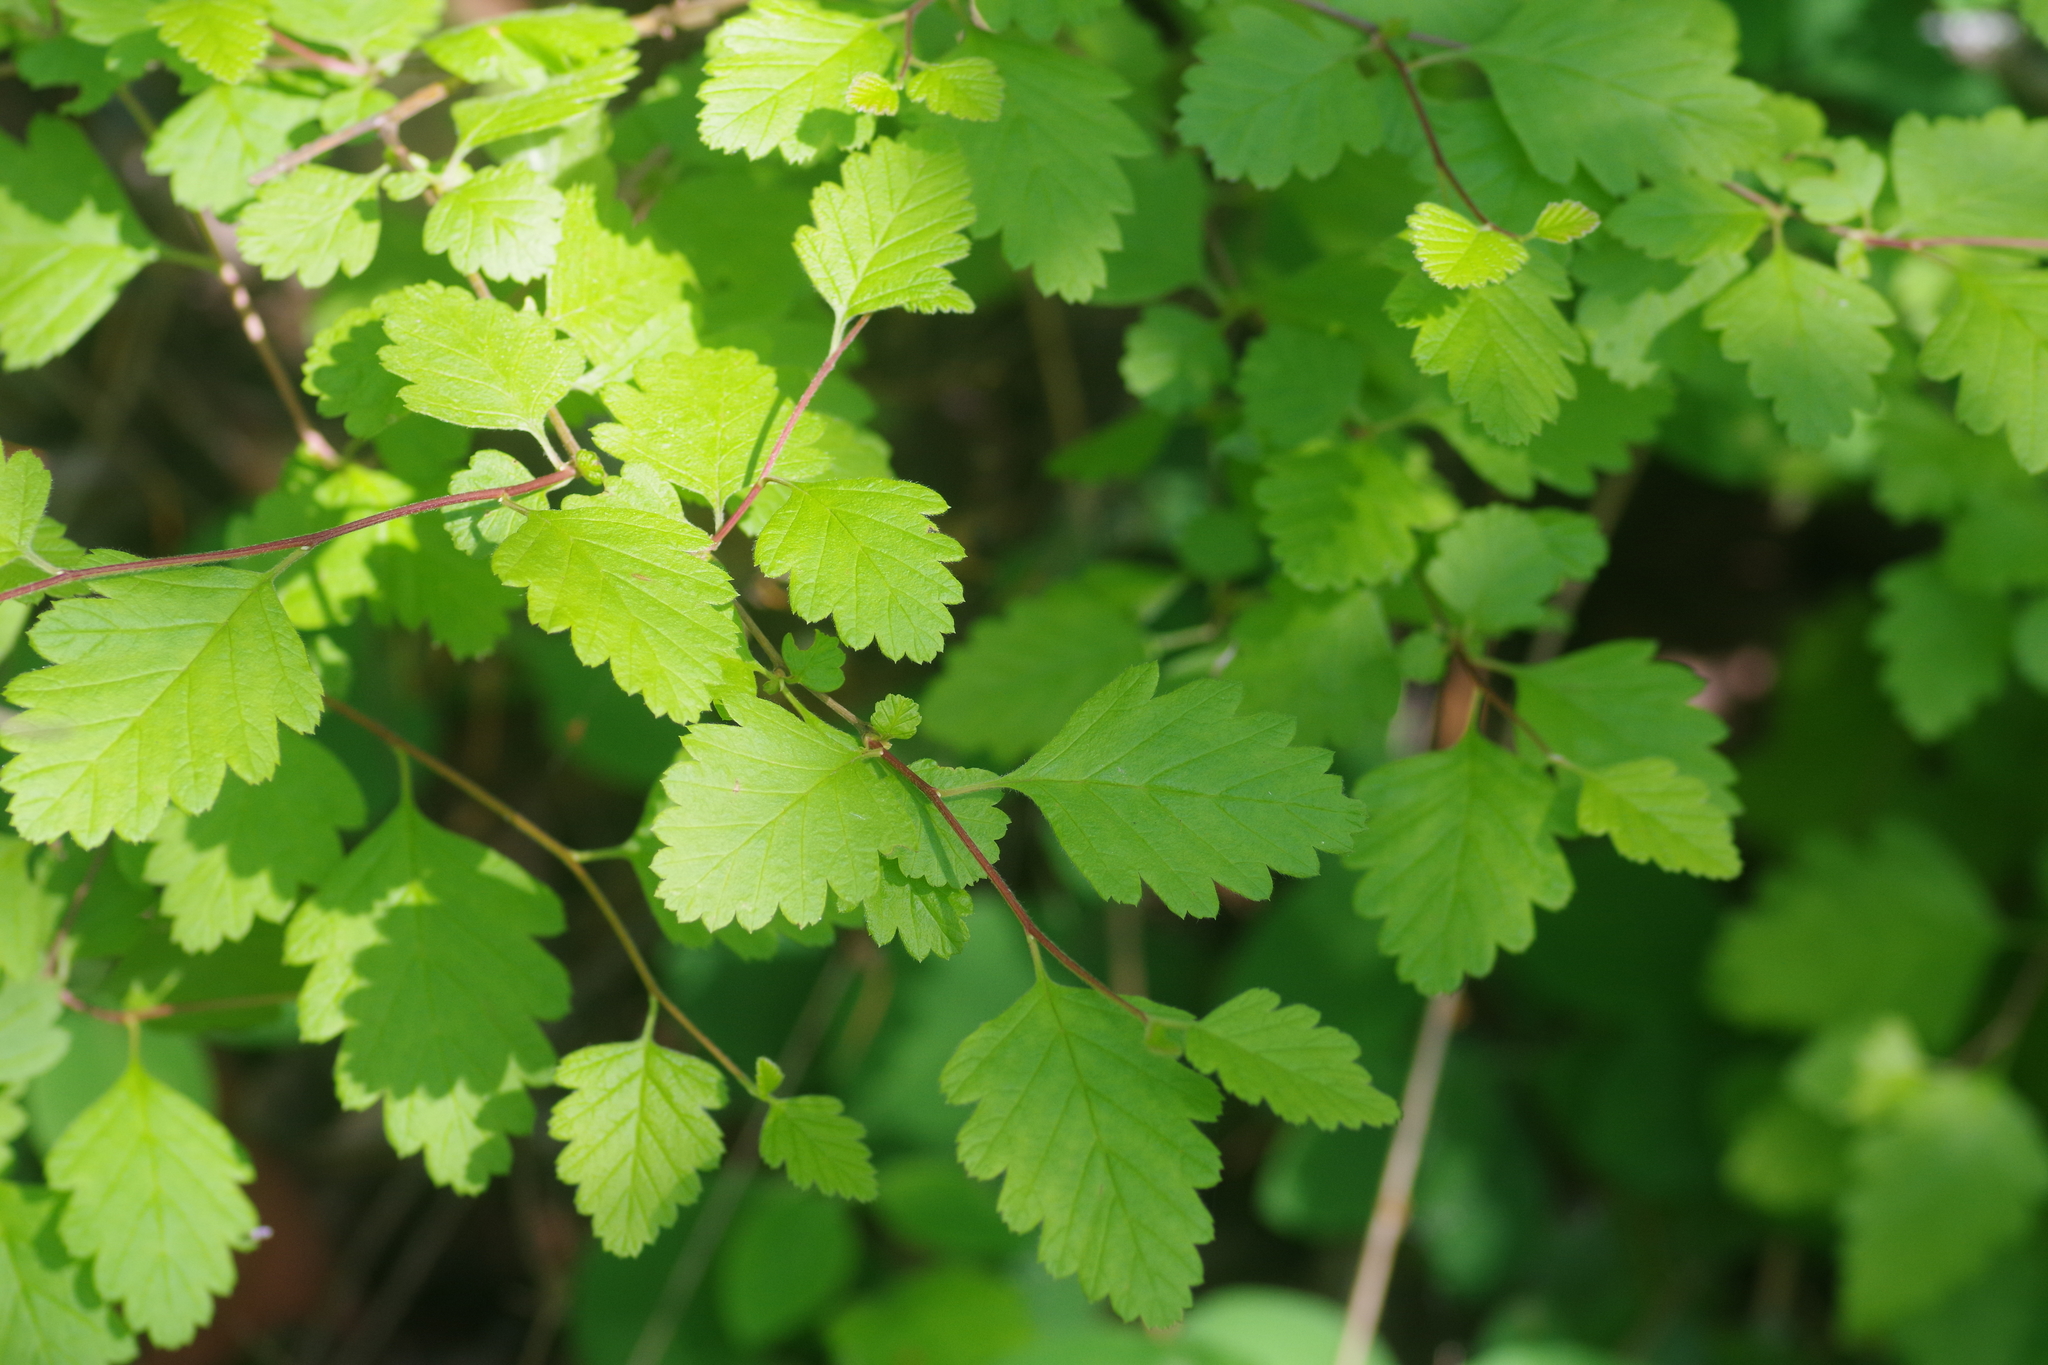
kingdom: Plantae
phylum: Tracheophyta
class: Magnoliopsida
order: Rosales
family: Rosaceae
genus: Holodiscus
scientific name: Holodiscus discolor
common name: Oceanspray
